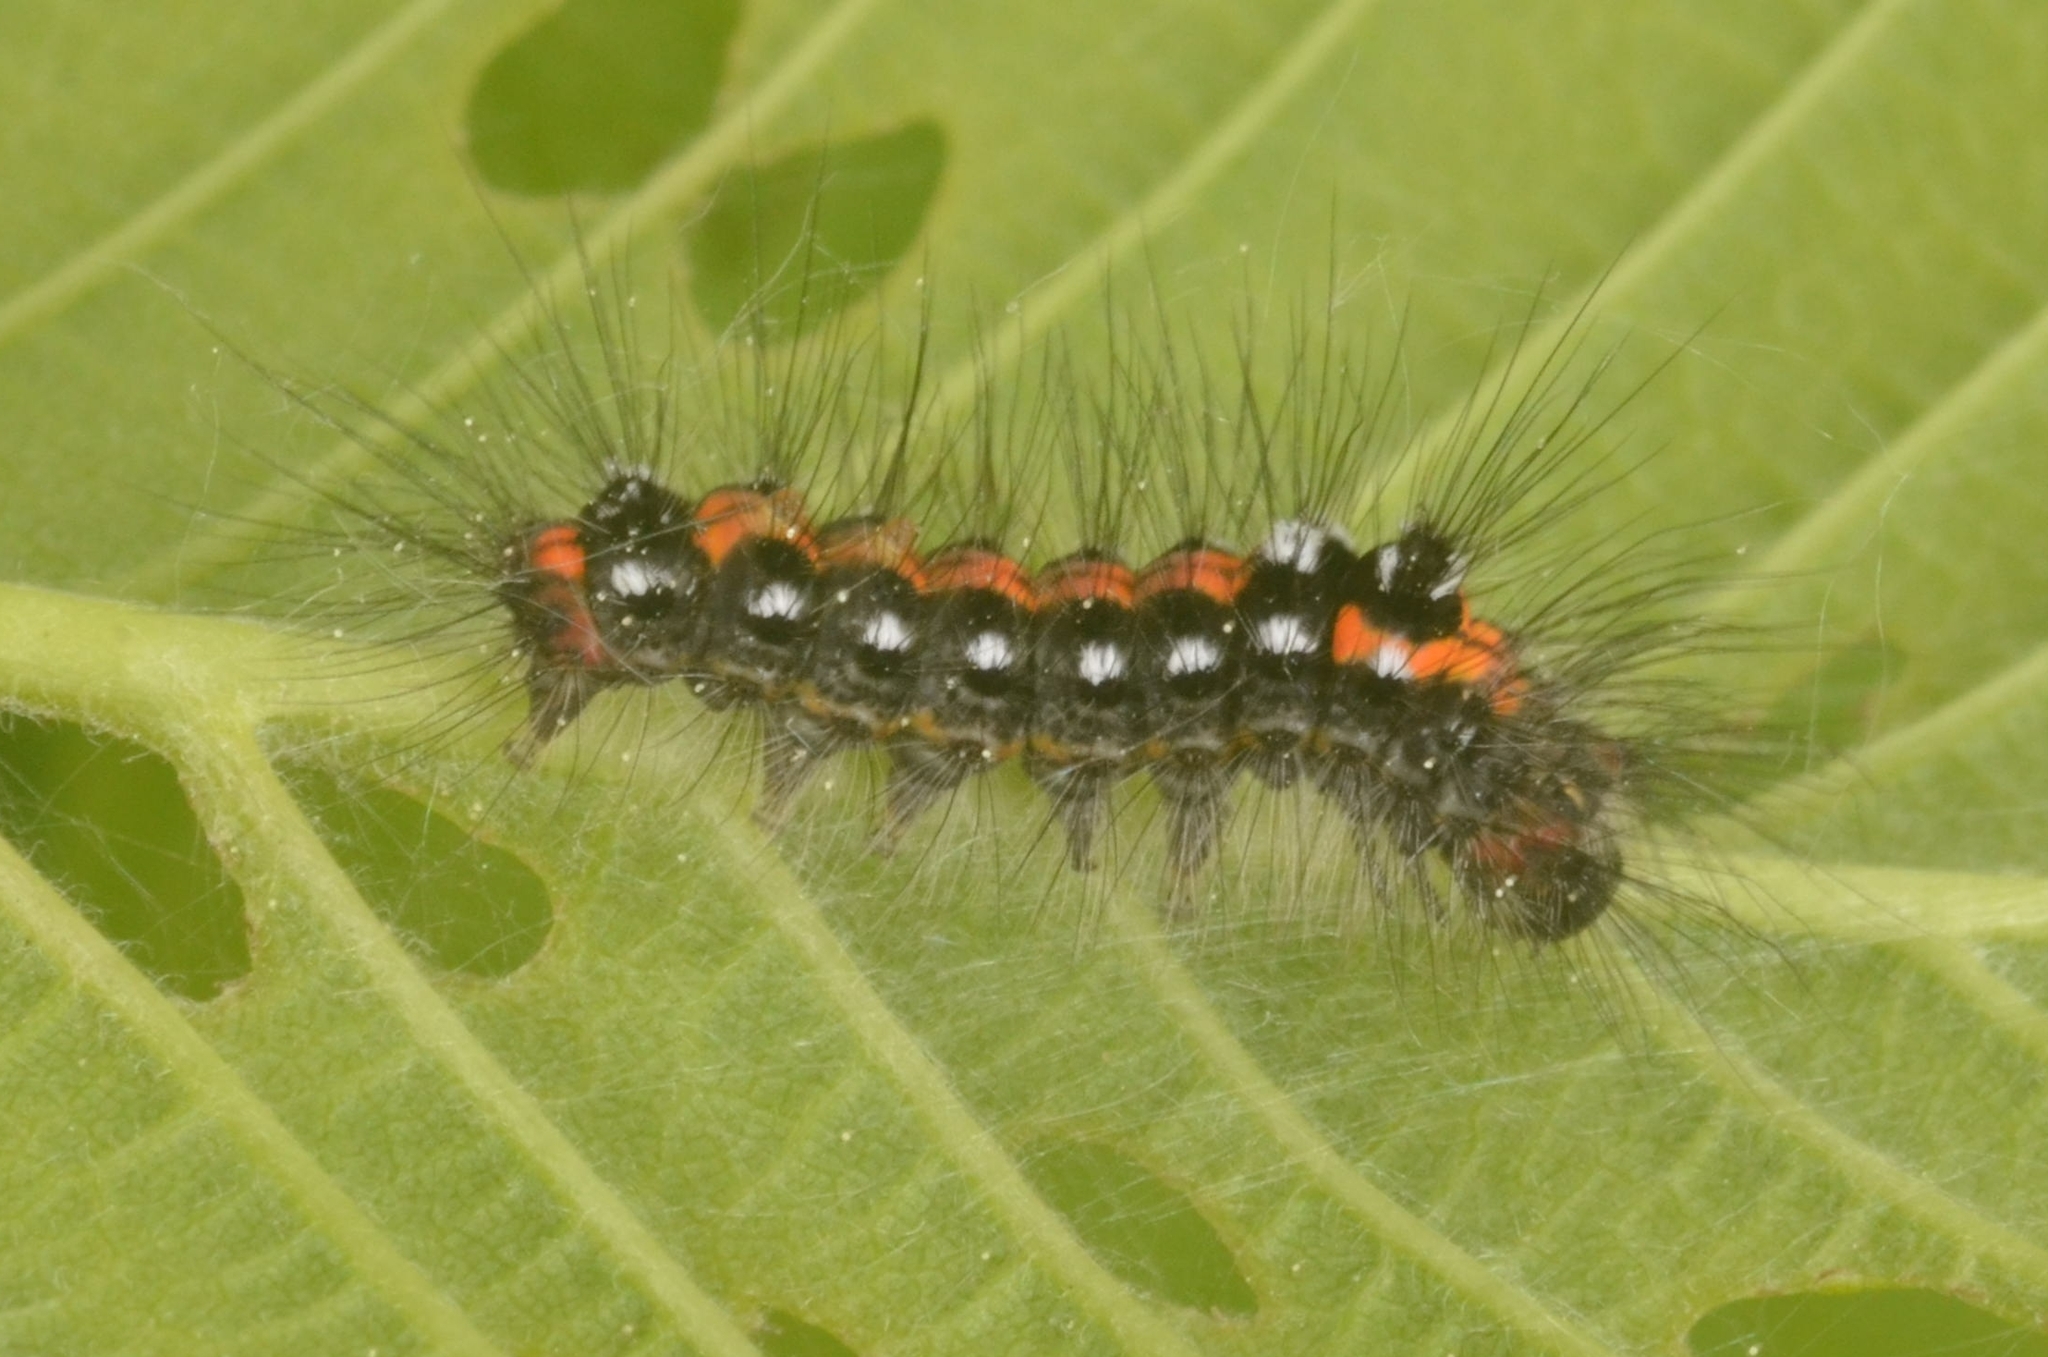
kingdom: Animalia
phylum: Arthropoda
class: Insecta
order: Lepidoptera
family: Erebidae
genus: Sphrageidus
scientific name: Sphrageidus similis
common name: Yellow-tail
